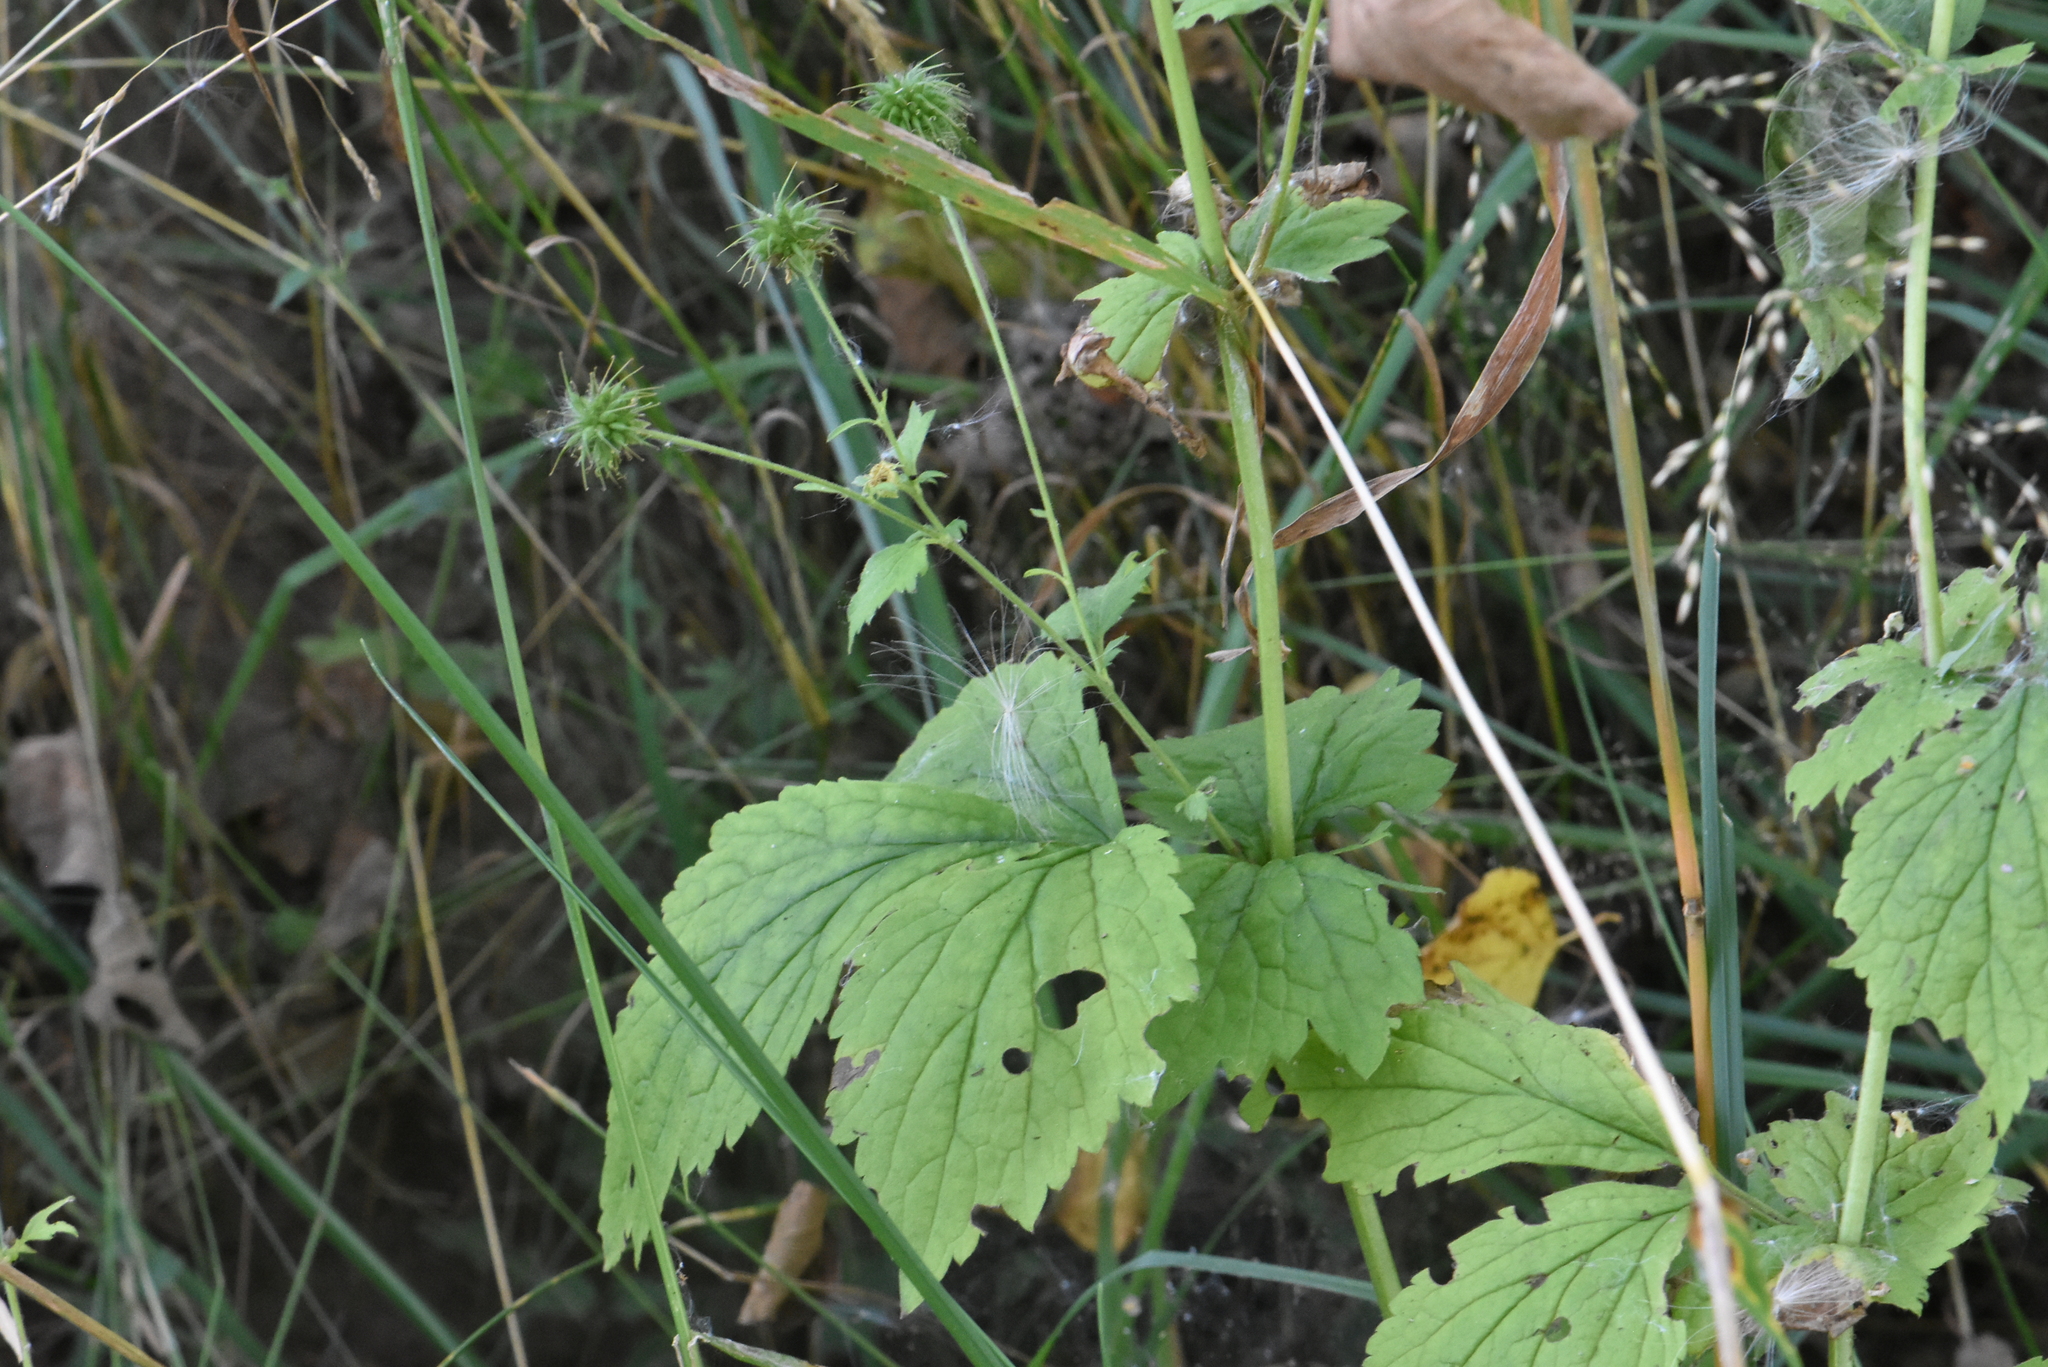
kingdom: Plantae
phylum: Tracheophyta
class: Magnoliopsida
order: Rosales
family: Rosaceae
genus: Geum
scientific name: Geum urbanum
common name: Wood avens
